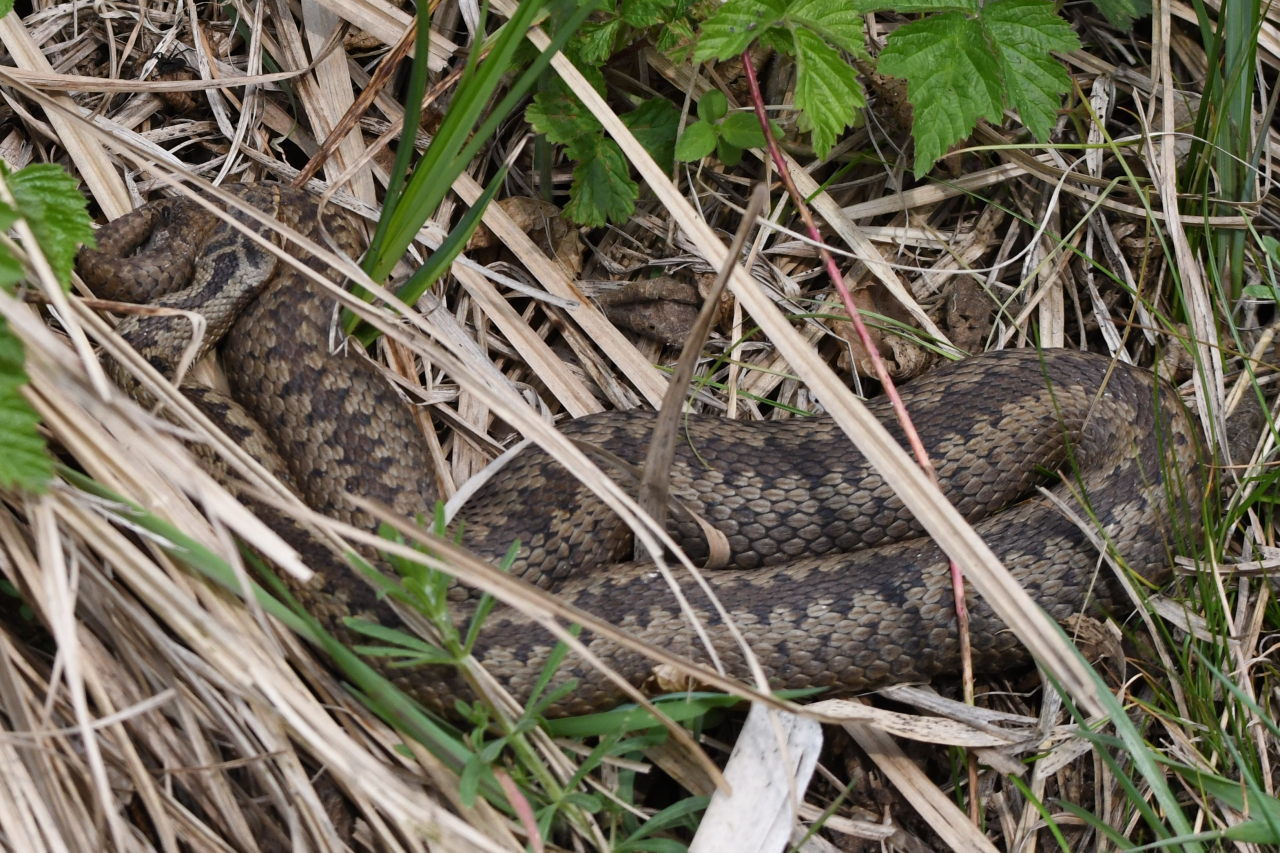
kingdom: Animalia
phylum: Chordata
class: Squamata
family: Viperidae
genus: Vipera
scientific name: Vipera berus
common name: Adder
